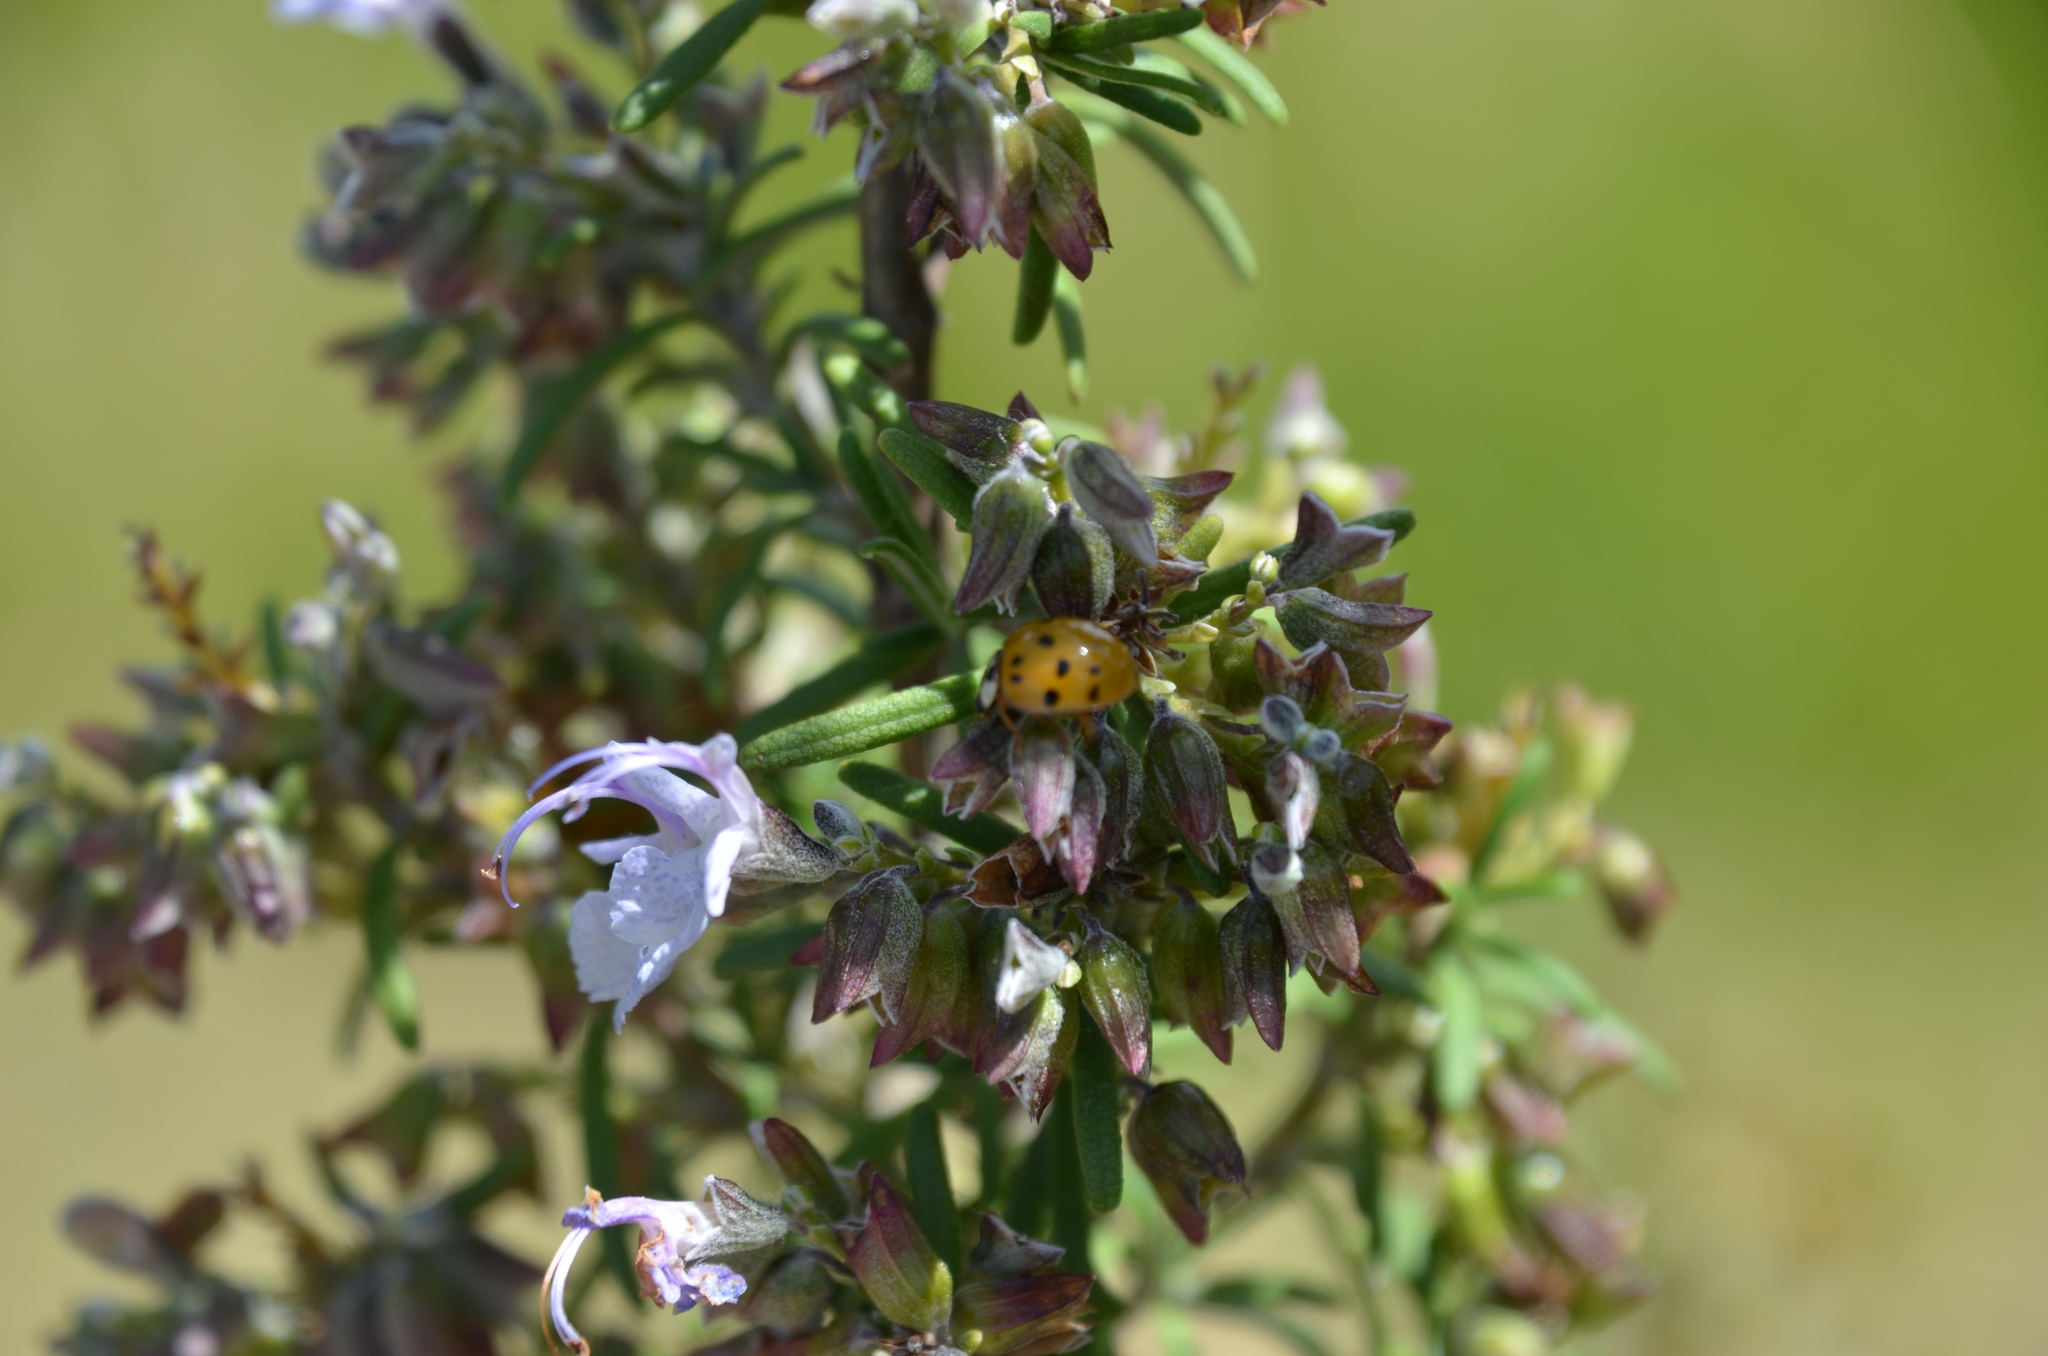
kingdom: Animalia
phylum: Arthropoda
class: Insecta
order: Coleoptera
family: Coccinellidae
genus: Harmonia
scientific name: Harmonia axyridis
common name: Harlequin ladybird
